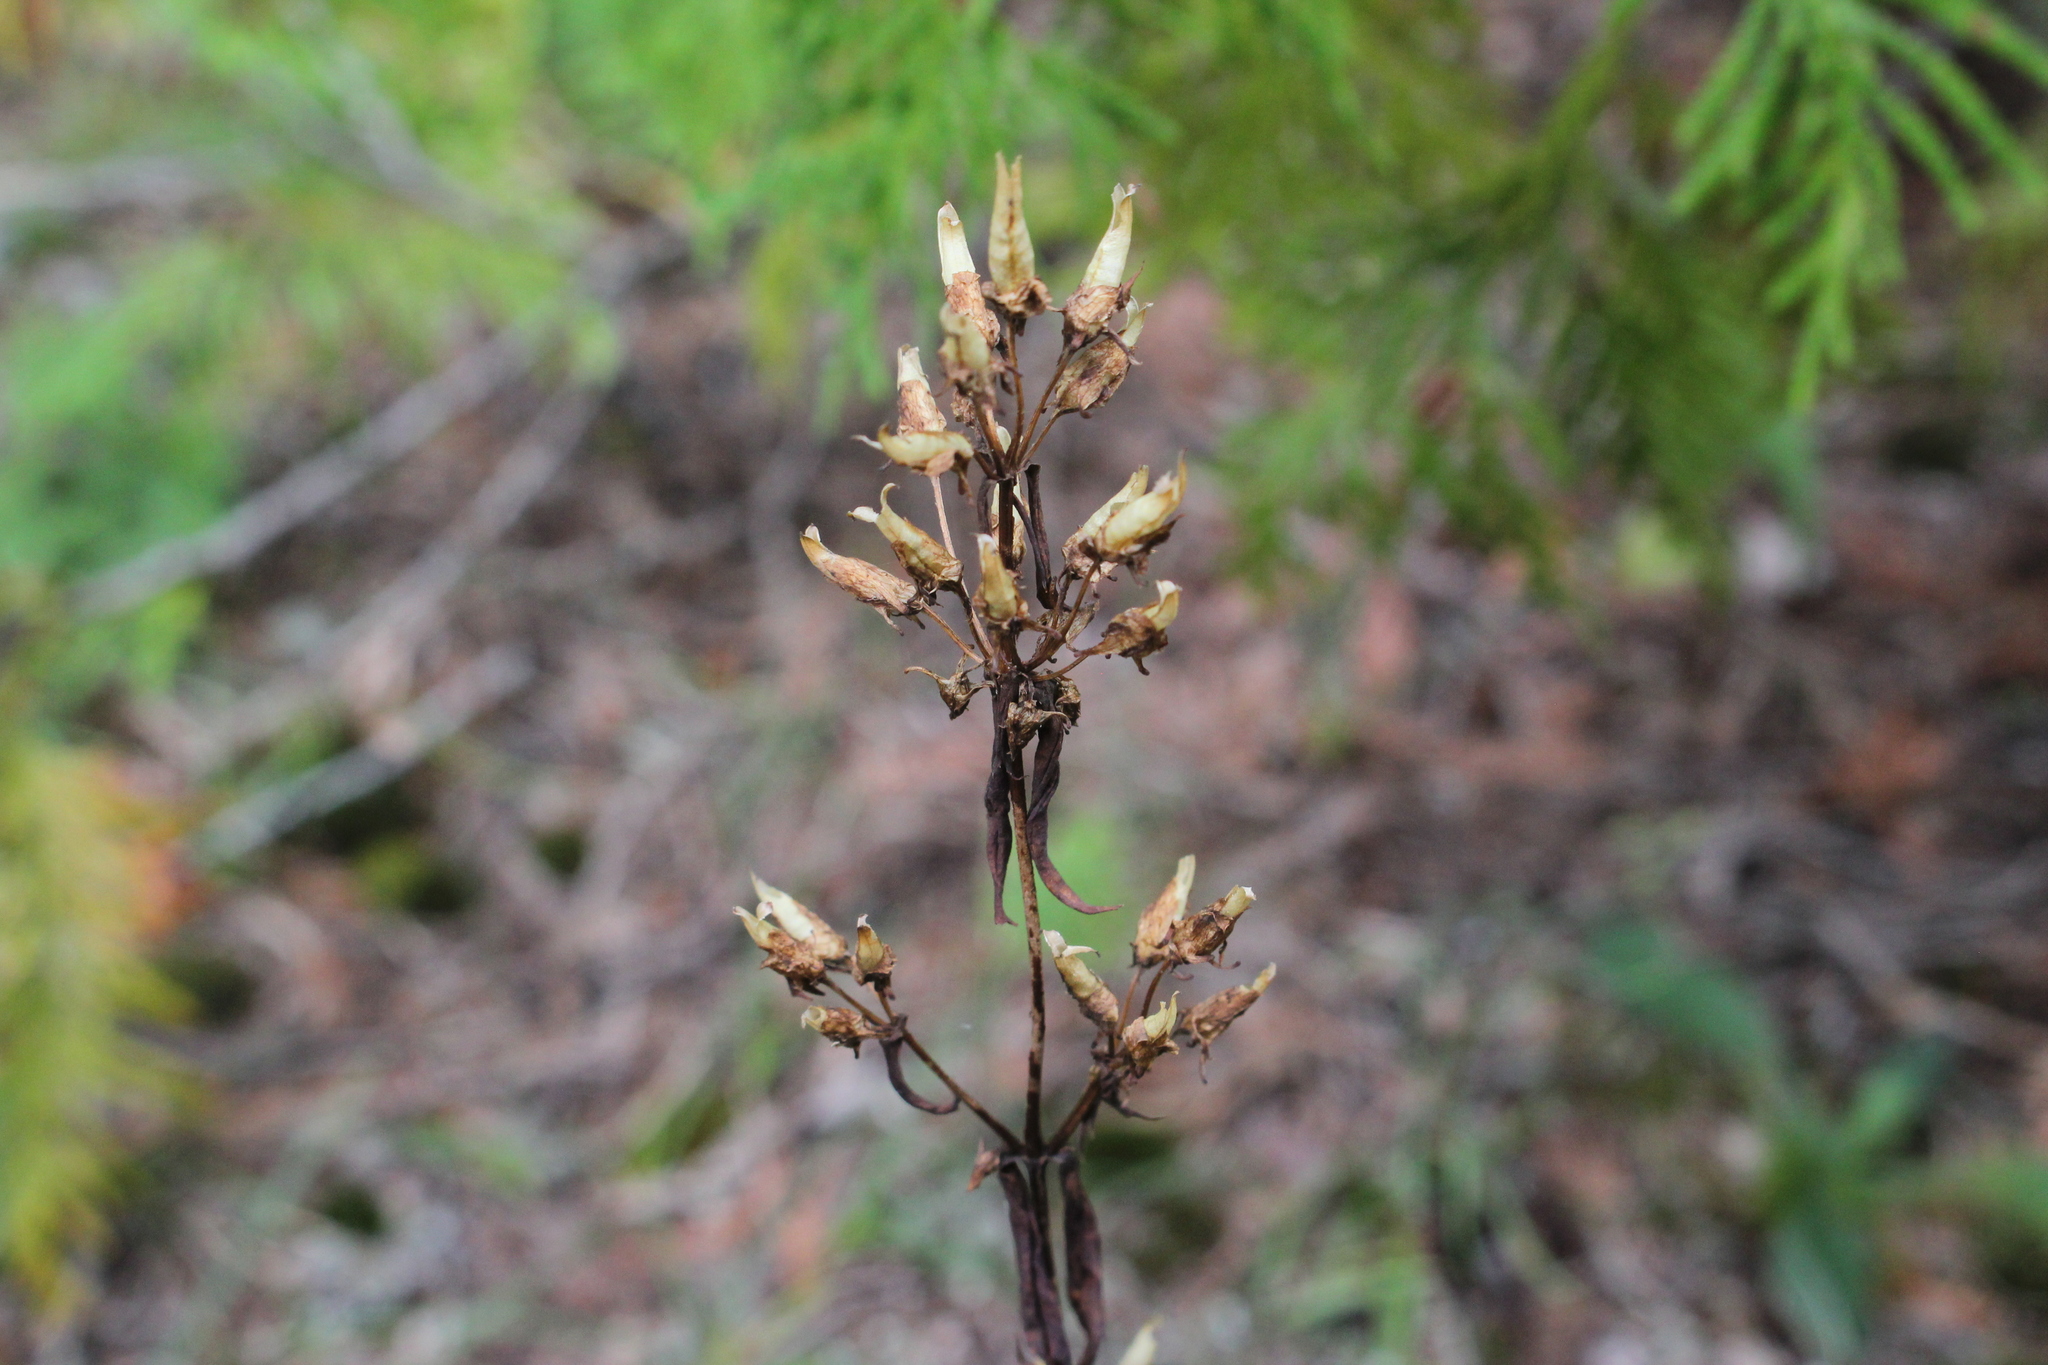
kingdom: Plantae
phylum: Tracheophyta
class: Magnoliopsida
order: Gentianales
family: Gentianaceae
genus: Halenia
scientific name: Halenia deflexa
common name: American spurred gentian
